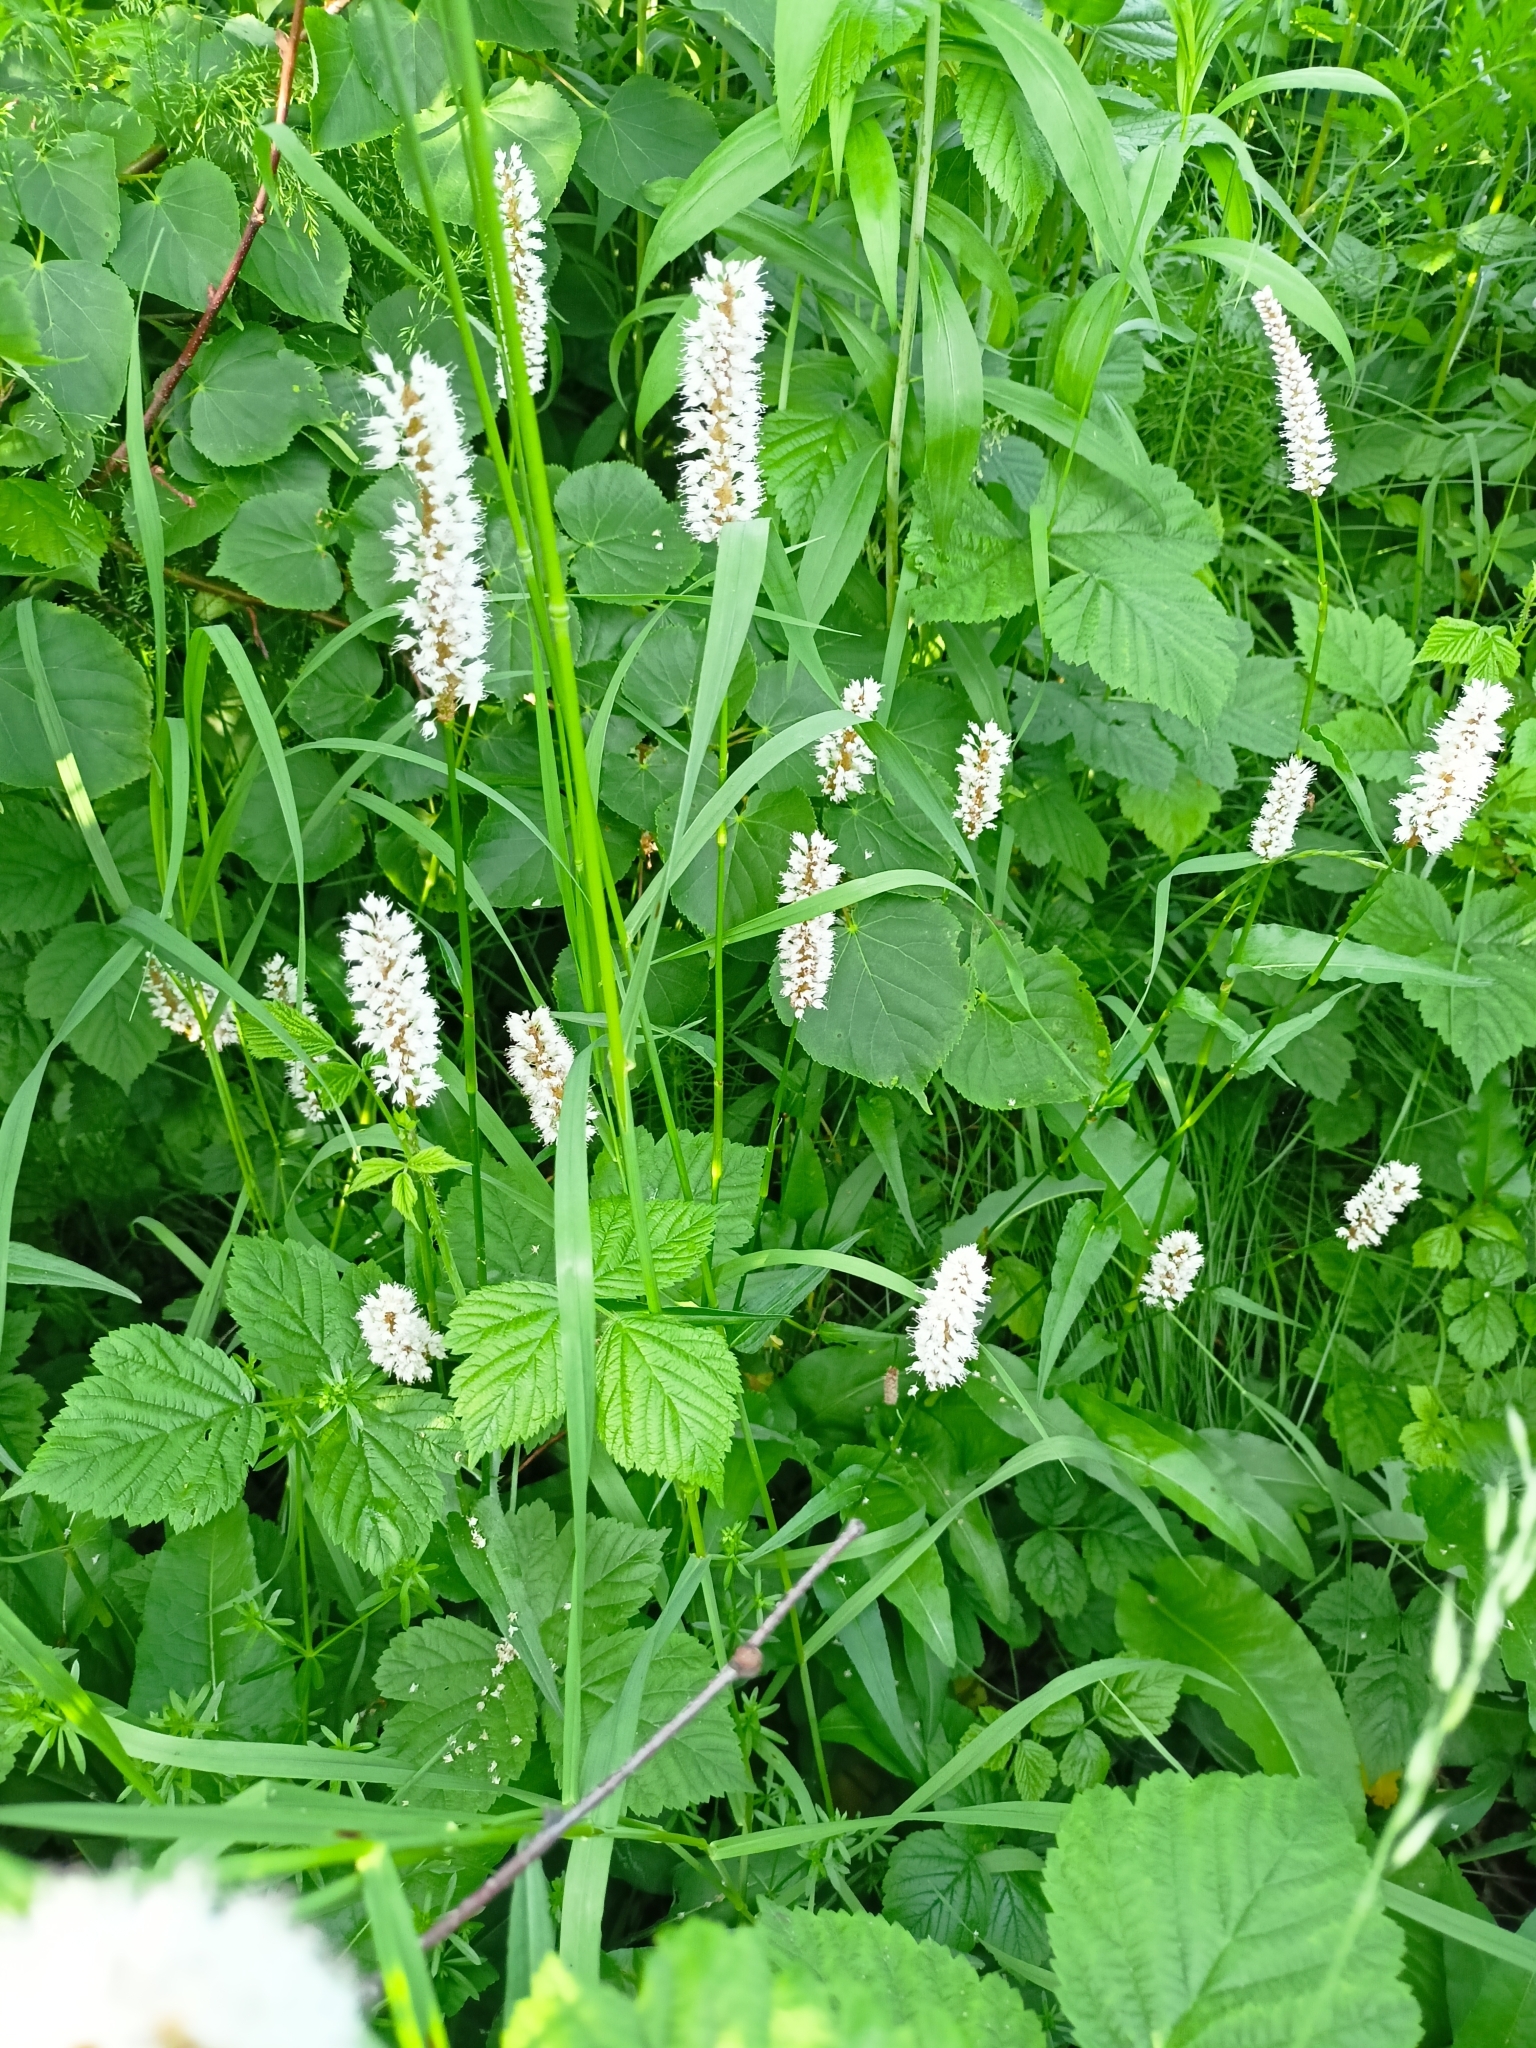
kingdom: Plantae
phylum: Tracheophyta
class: Magnoliopsida
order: Caryophyllales
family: Polygonaceae
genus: Bistorta
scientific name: Bistorta officinalis
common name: Common bistort
